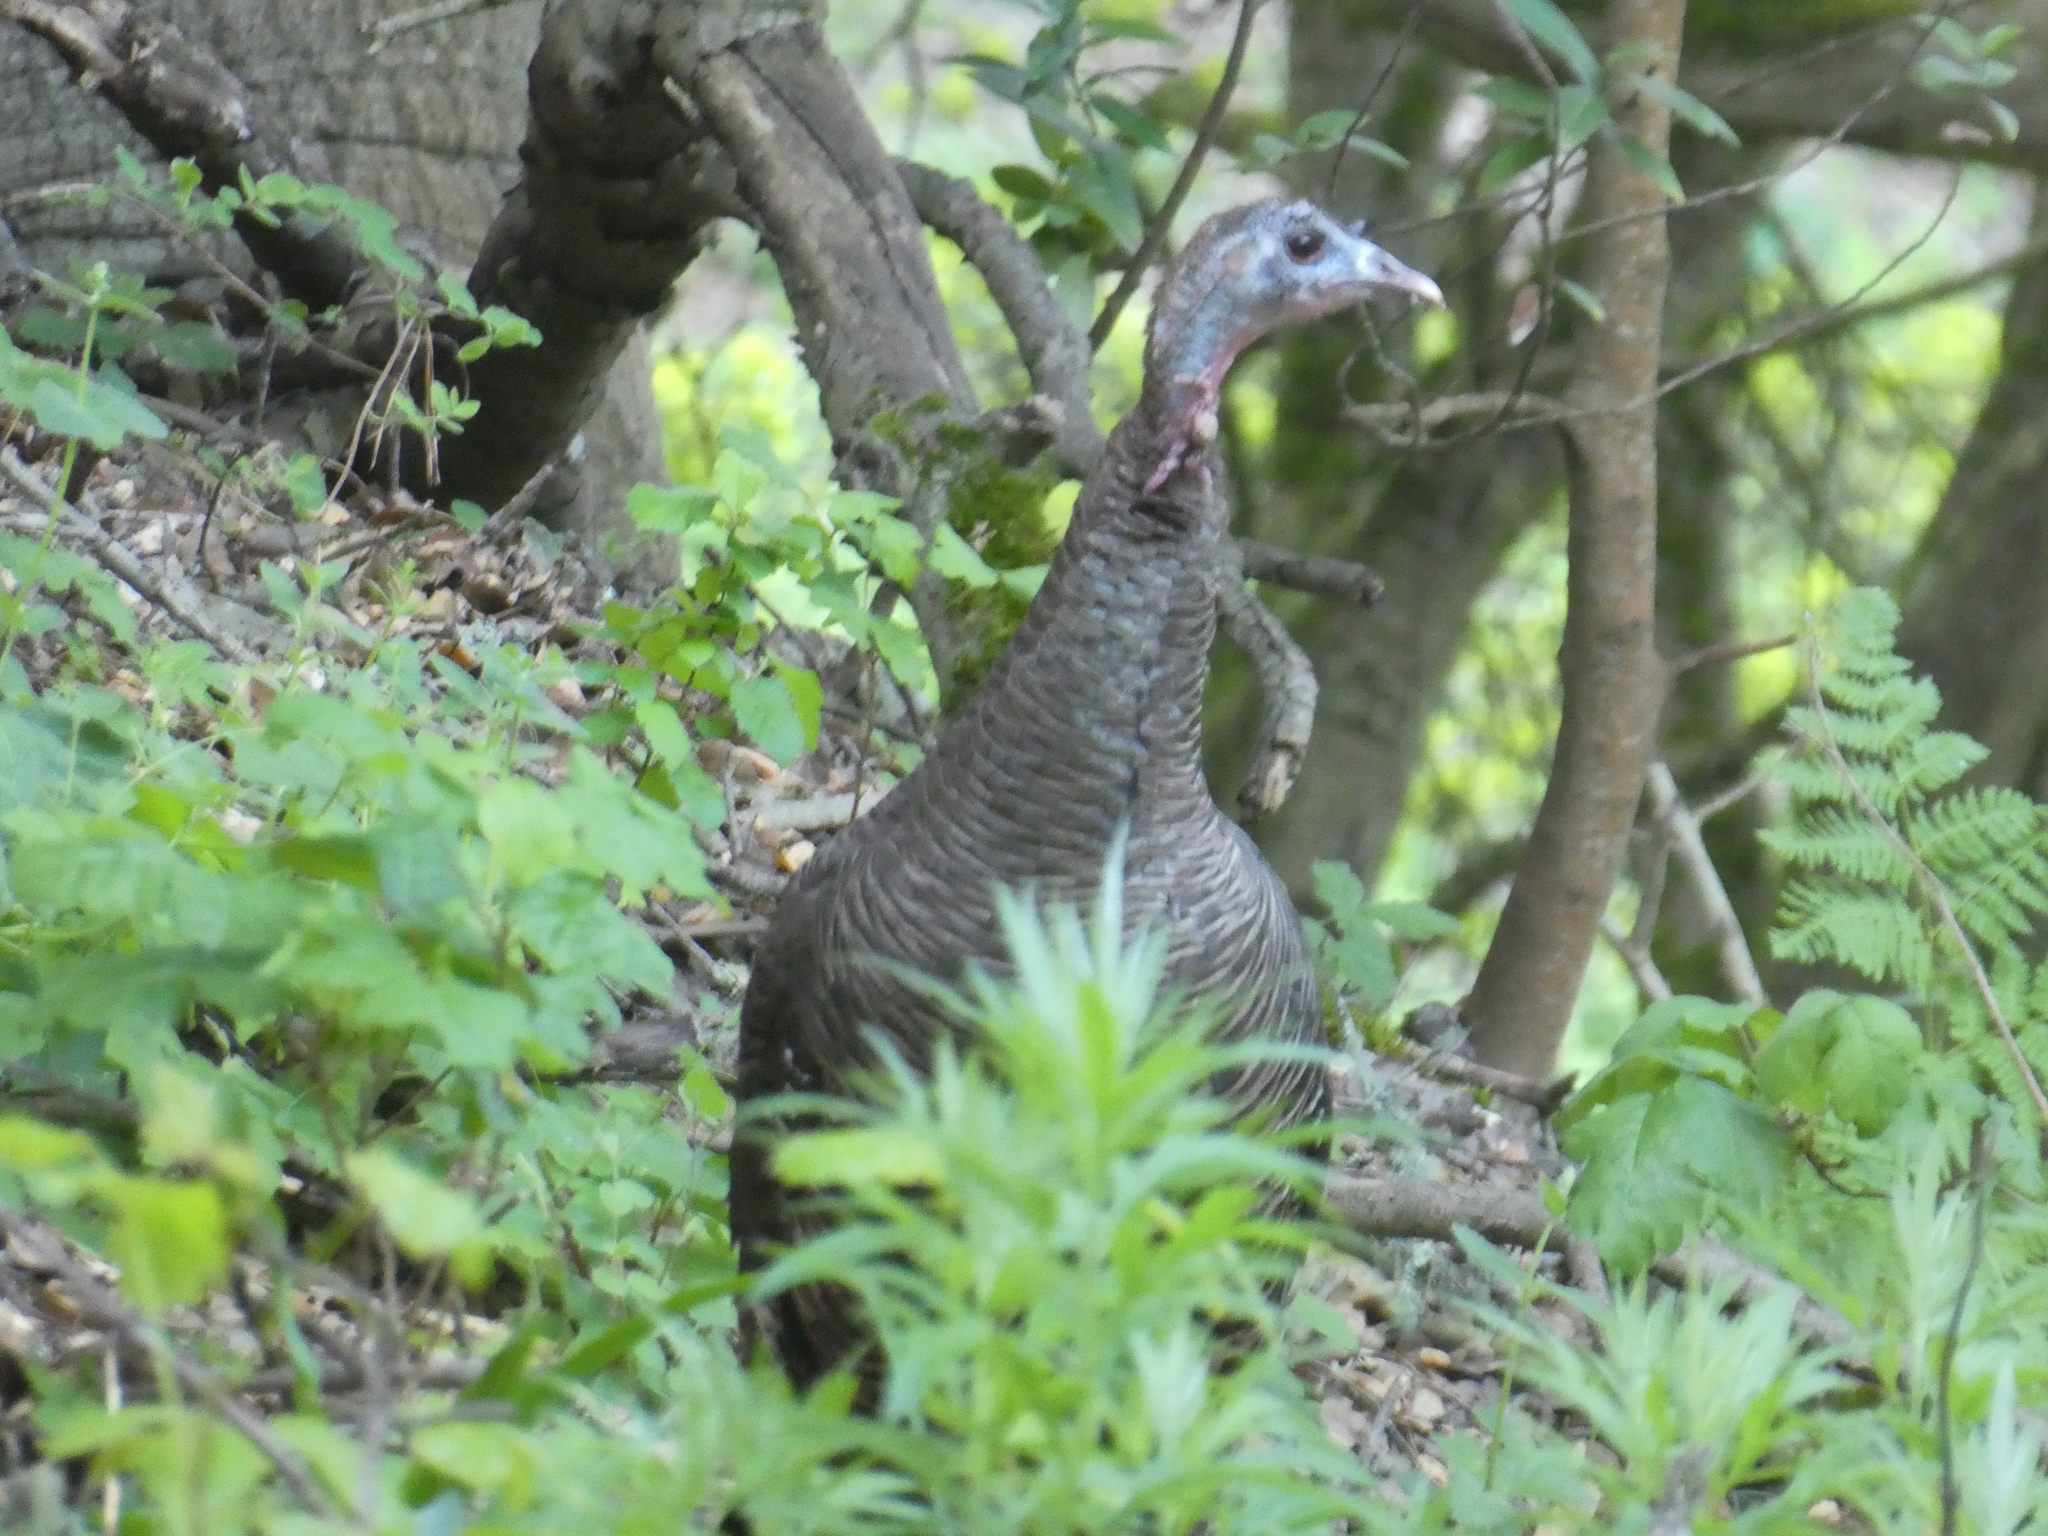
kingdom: Animalia
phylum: Chordata
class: Aves
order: Galliformes
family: Phasianidae
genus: Meleagris
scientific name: Meleagris gallopavo
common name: Wild turkey
